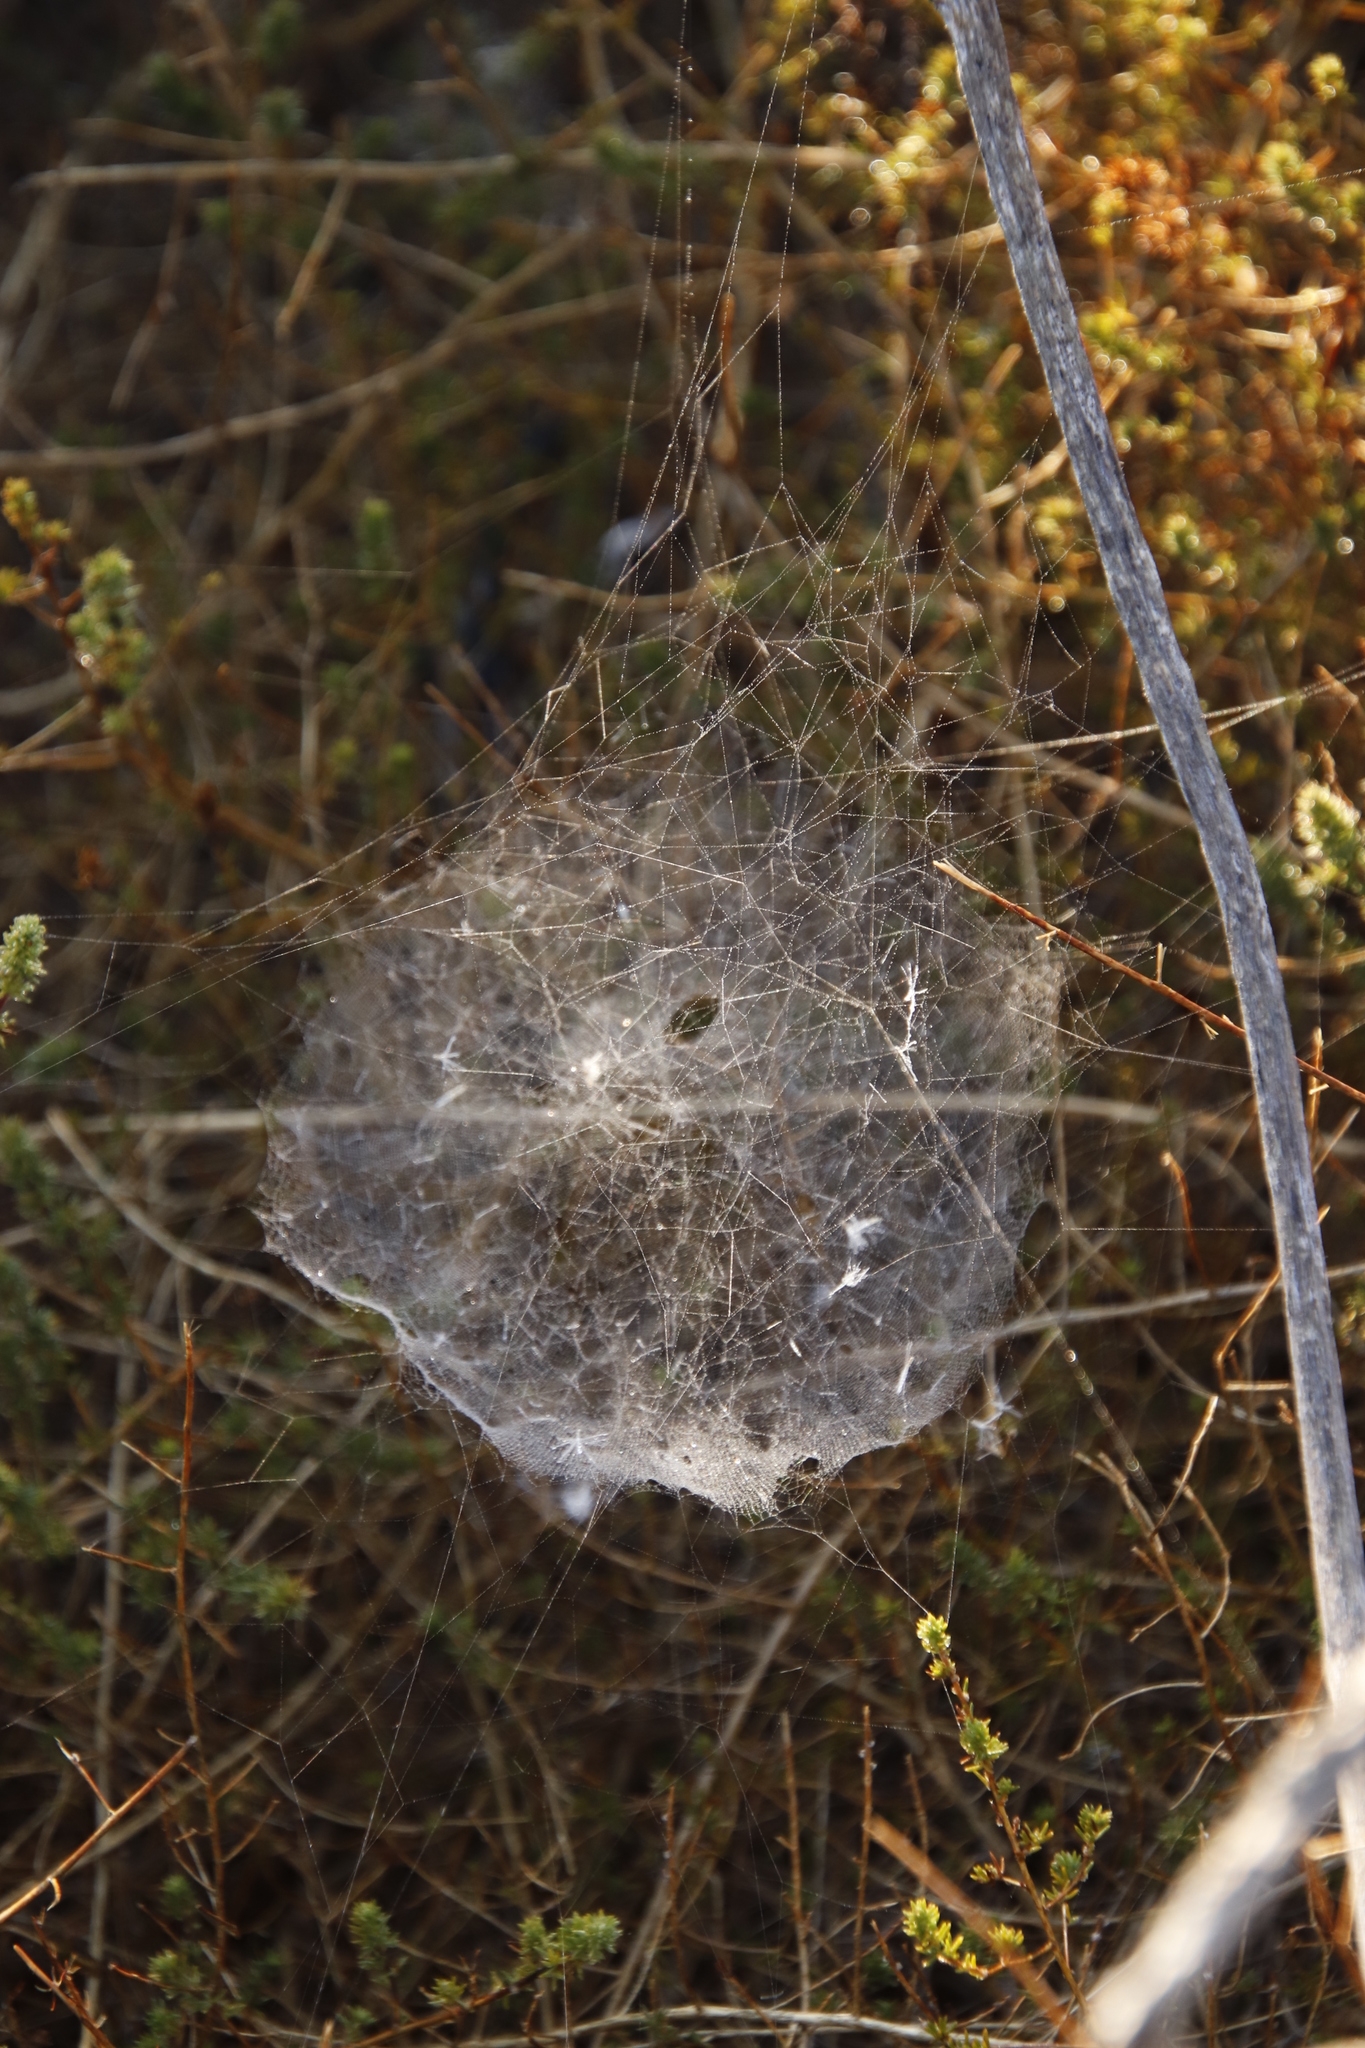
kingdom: Animalia
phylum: Arthropoda
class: Arachnida
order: Araneae
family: Araneidae
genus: Cyrtophora
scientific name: Cyrtophora citricola
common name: Orb weavers
